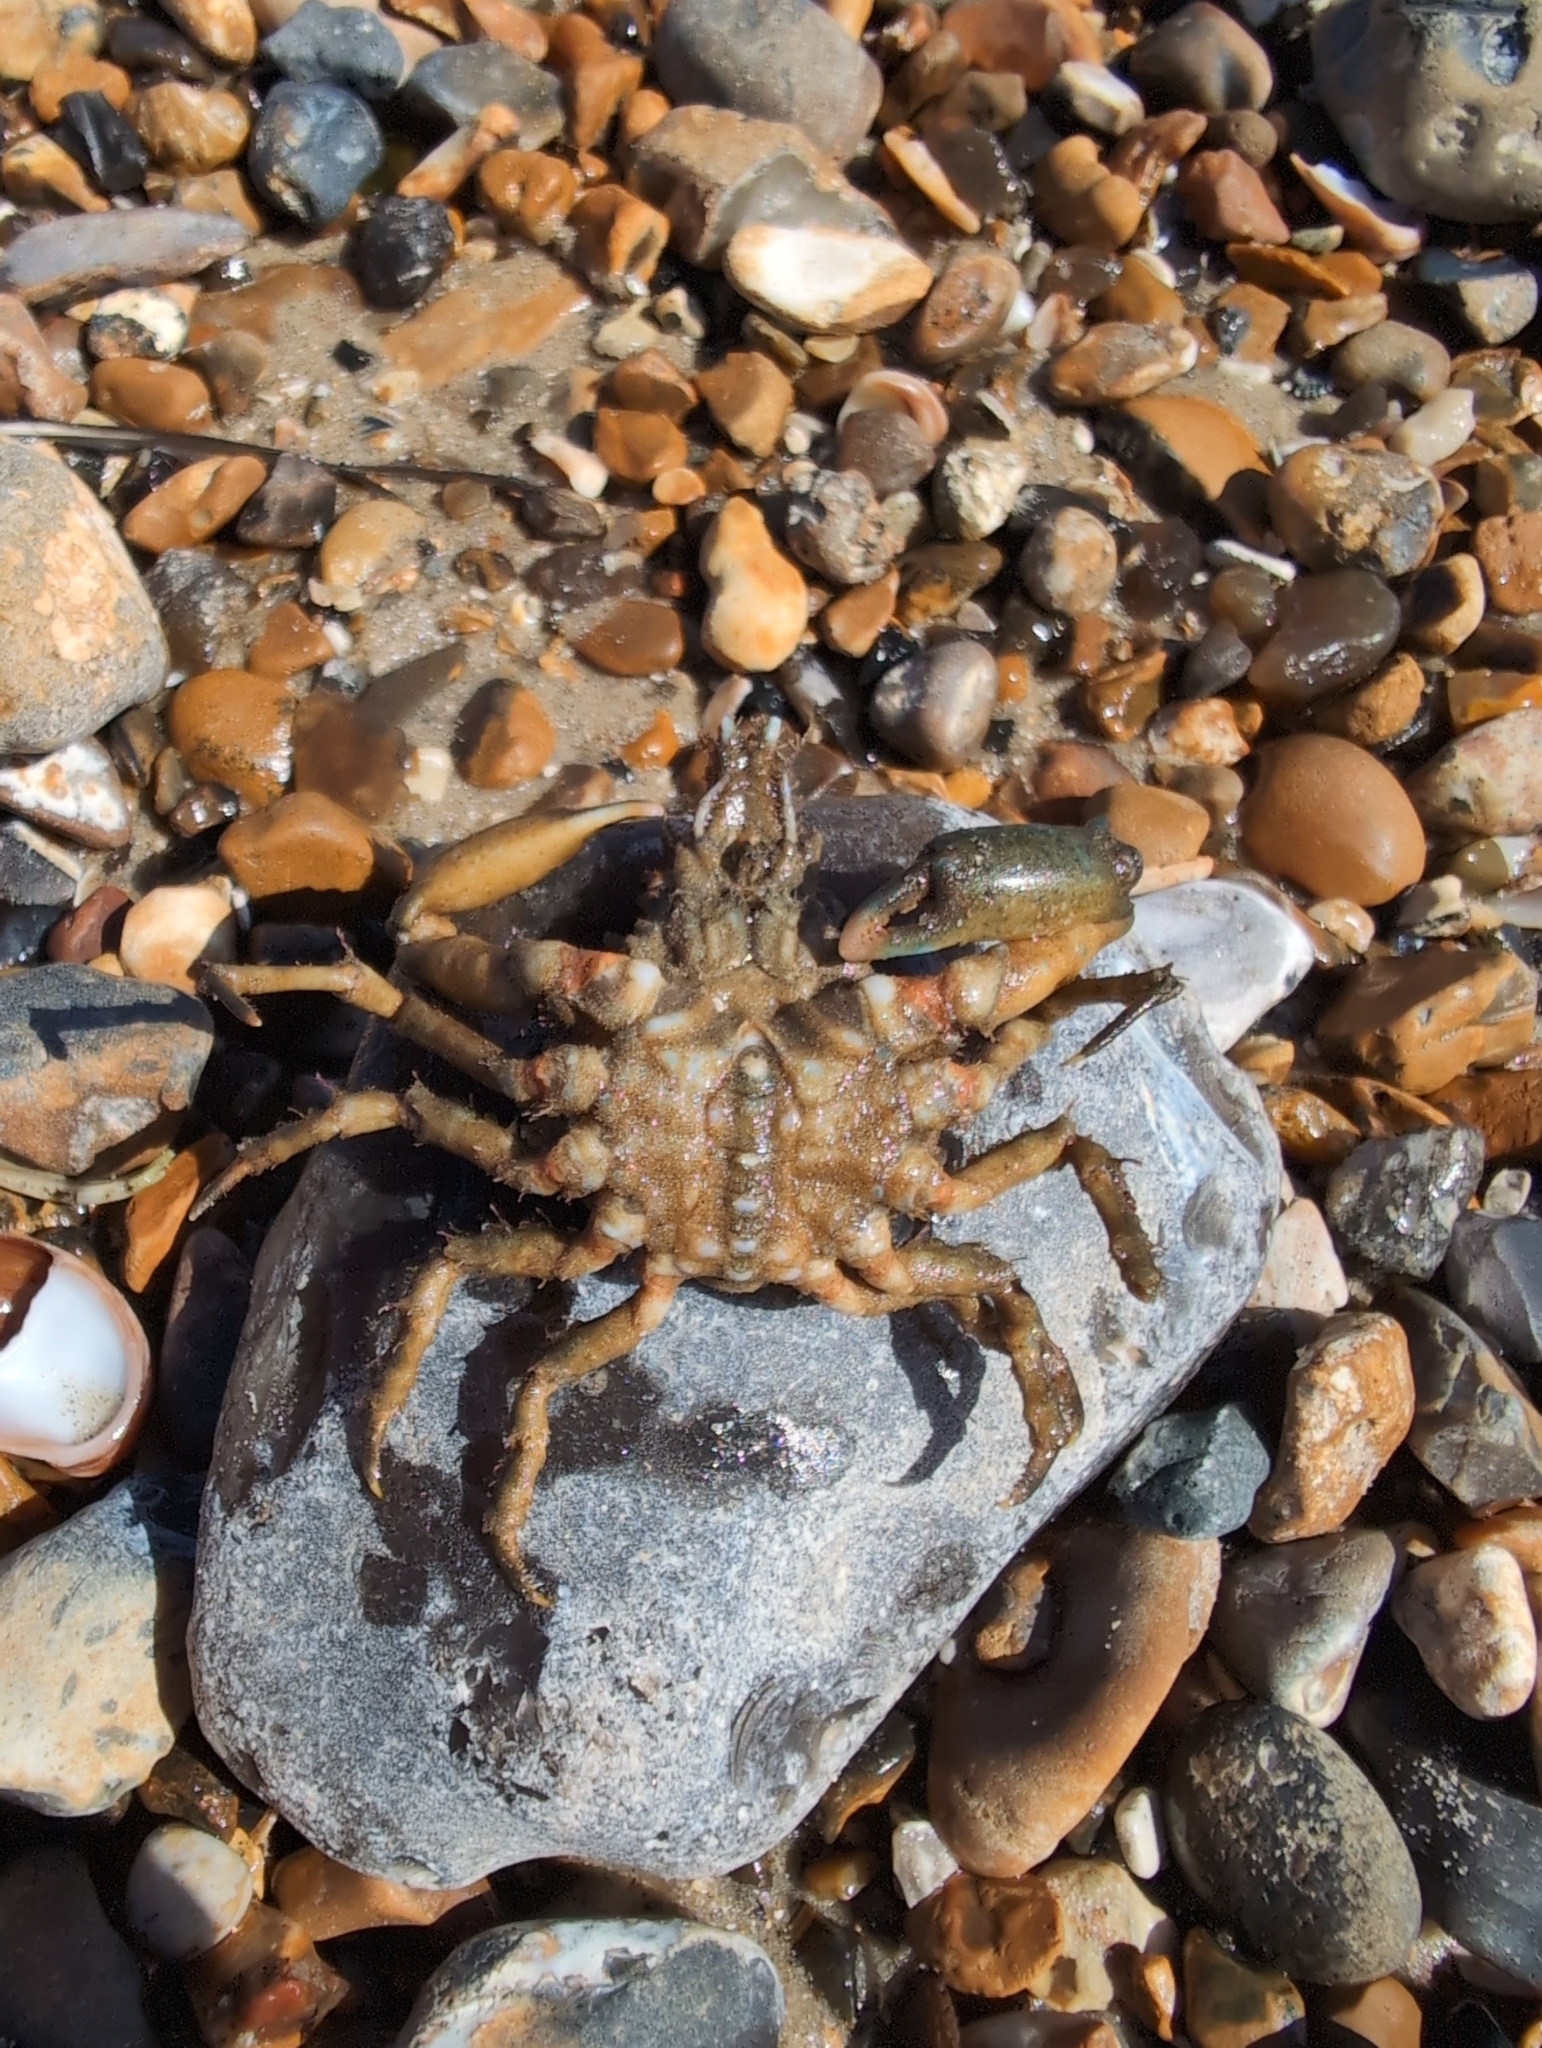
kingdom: Animalia
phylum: Arthropoda
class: Malacostraca
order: Decapoda
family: Epialtidae
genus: Pisa
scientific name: Pisa tetraodon
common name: Four-horned spider crab
